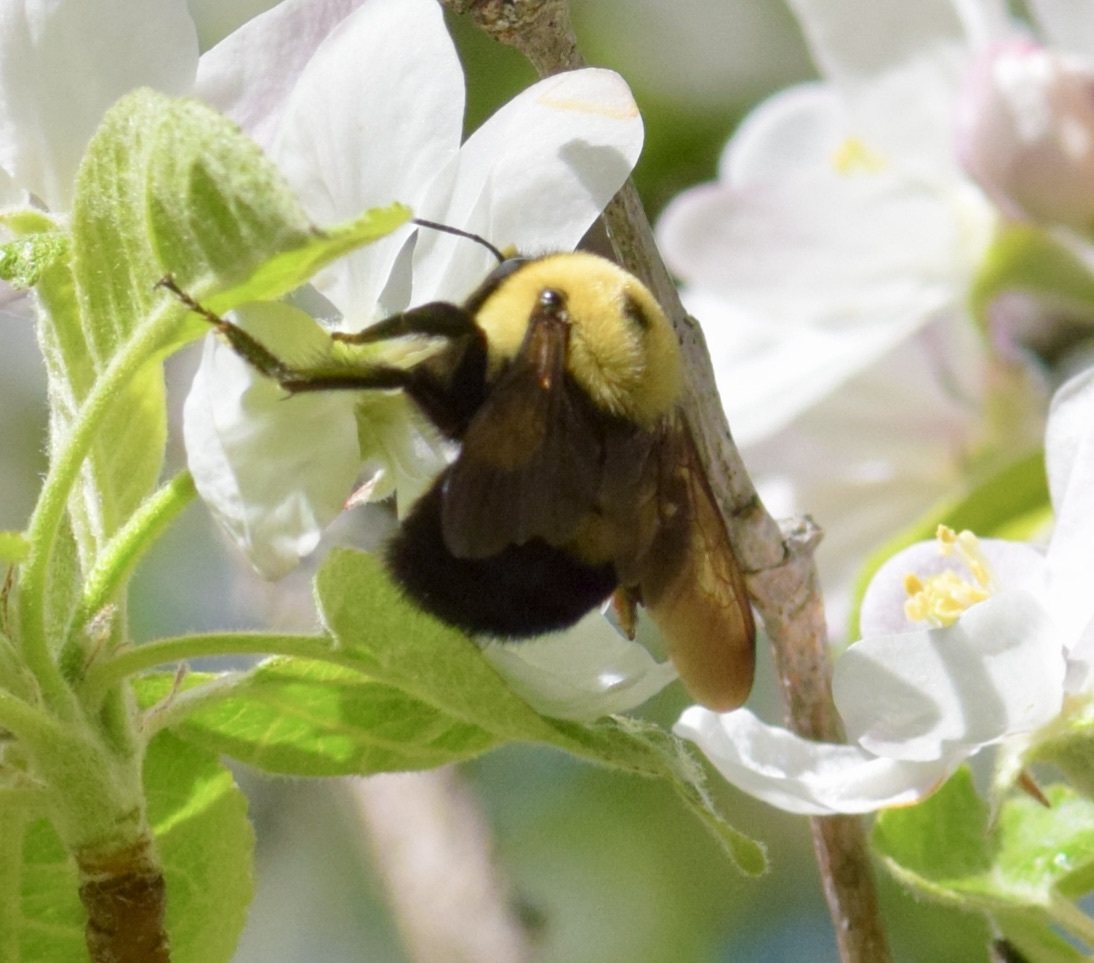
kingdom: Animalia
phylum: Arthropoda
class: Insecta
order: Hymenoptera
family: Apidae
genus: Bombus
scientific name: Bombus griseocollis
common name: Brown-belted bumble bee
